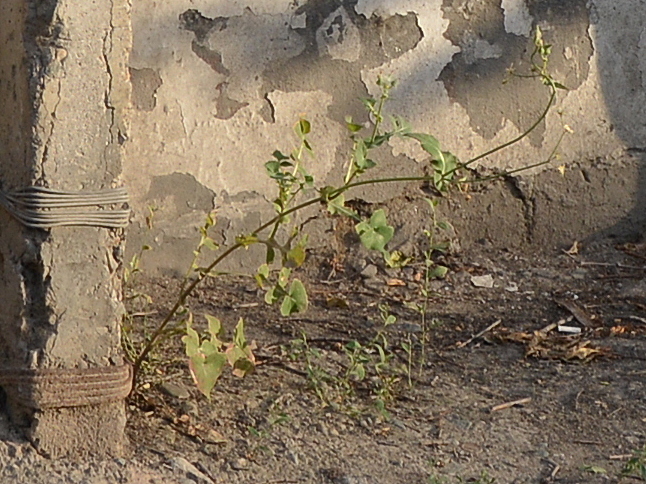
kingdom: Plantae
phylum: Tracheophyta
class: Magnoliopsida
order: Asterales
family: Asteraceae
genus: Sonchus
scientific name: Sonchus oleraceus
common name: Common sowthistle
